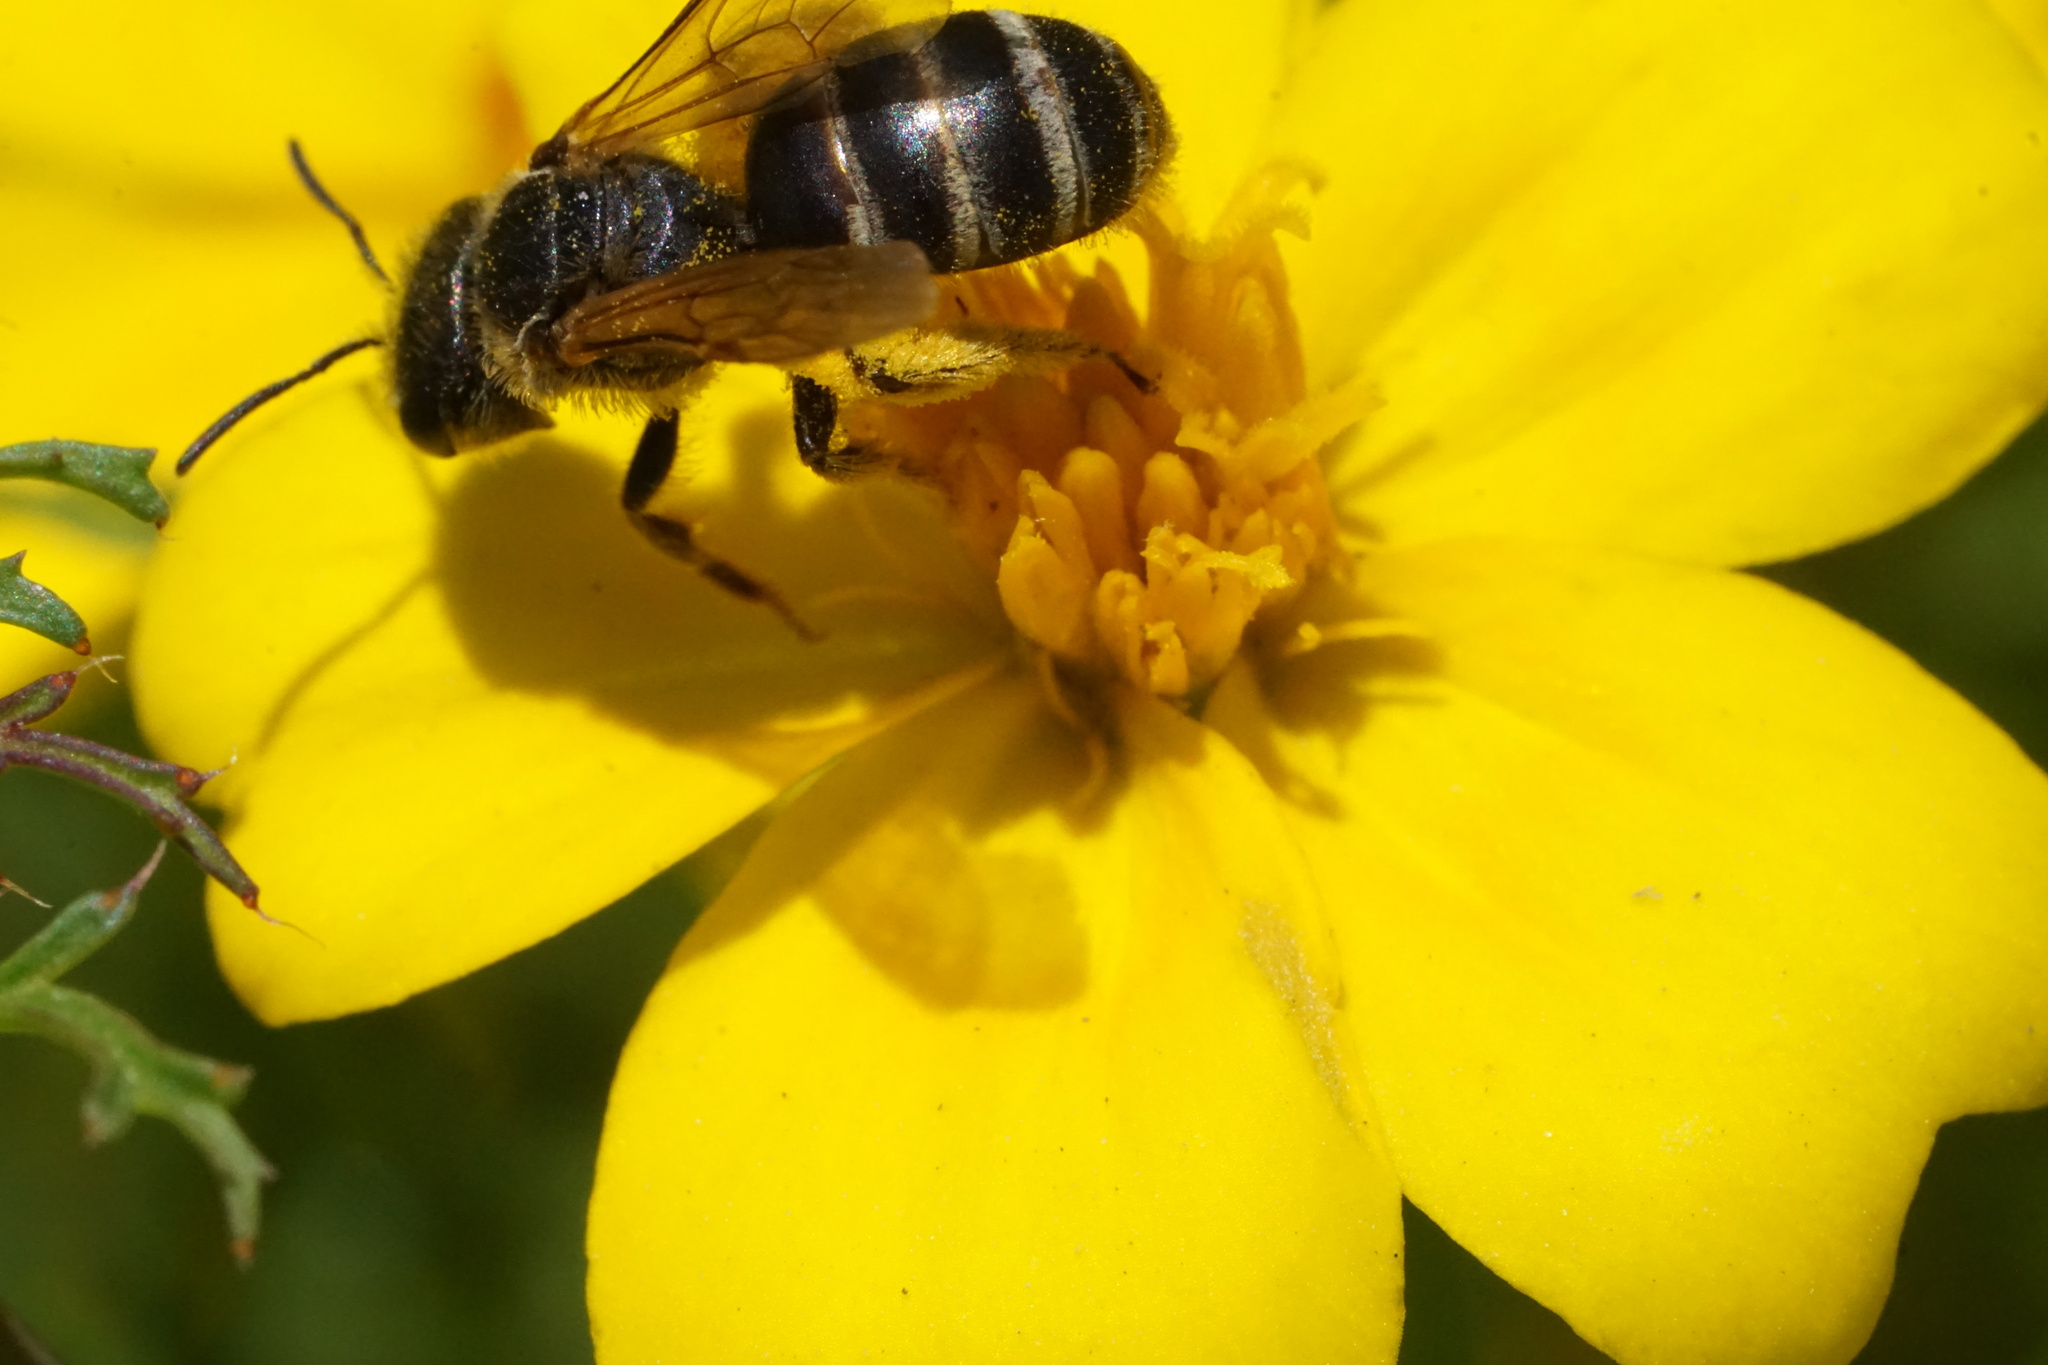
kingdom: Animalia
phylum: Arthropoda
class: Insecta
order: Hymenoptera
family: Halictidae
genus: Halictus
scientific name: Halictus ligatus
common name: Ligated furrow bee
